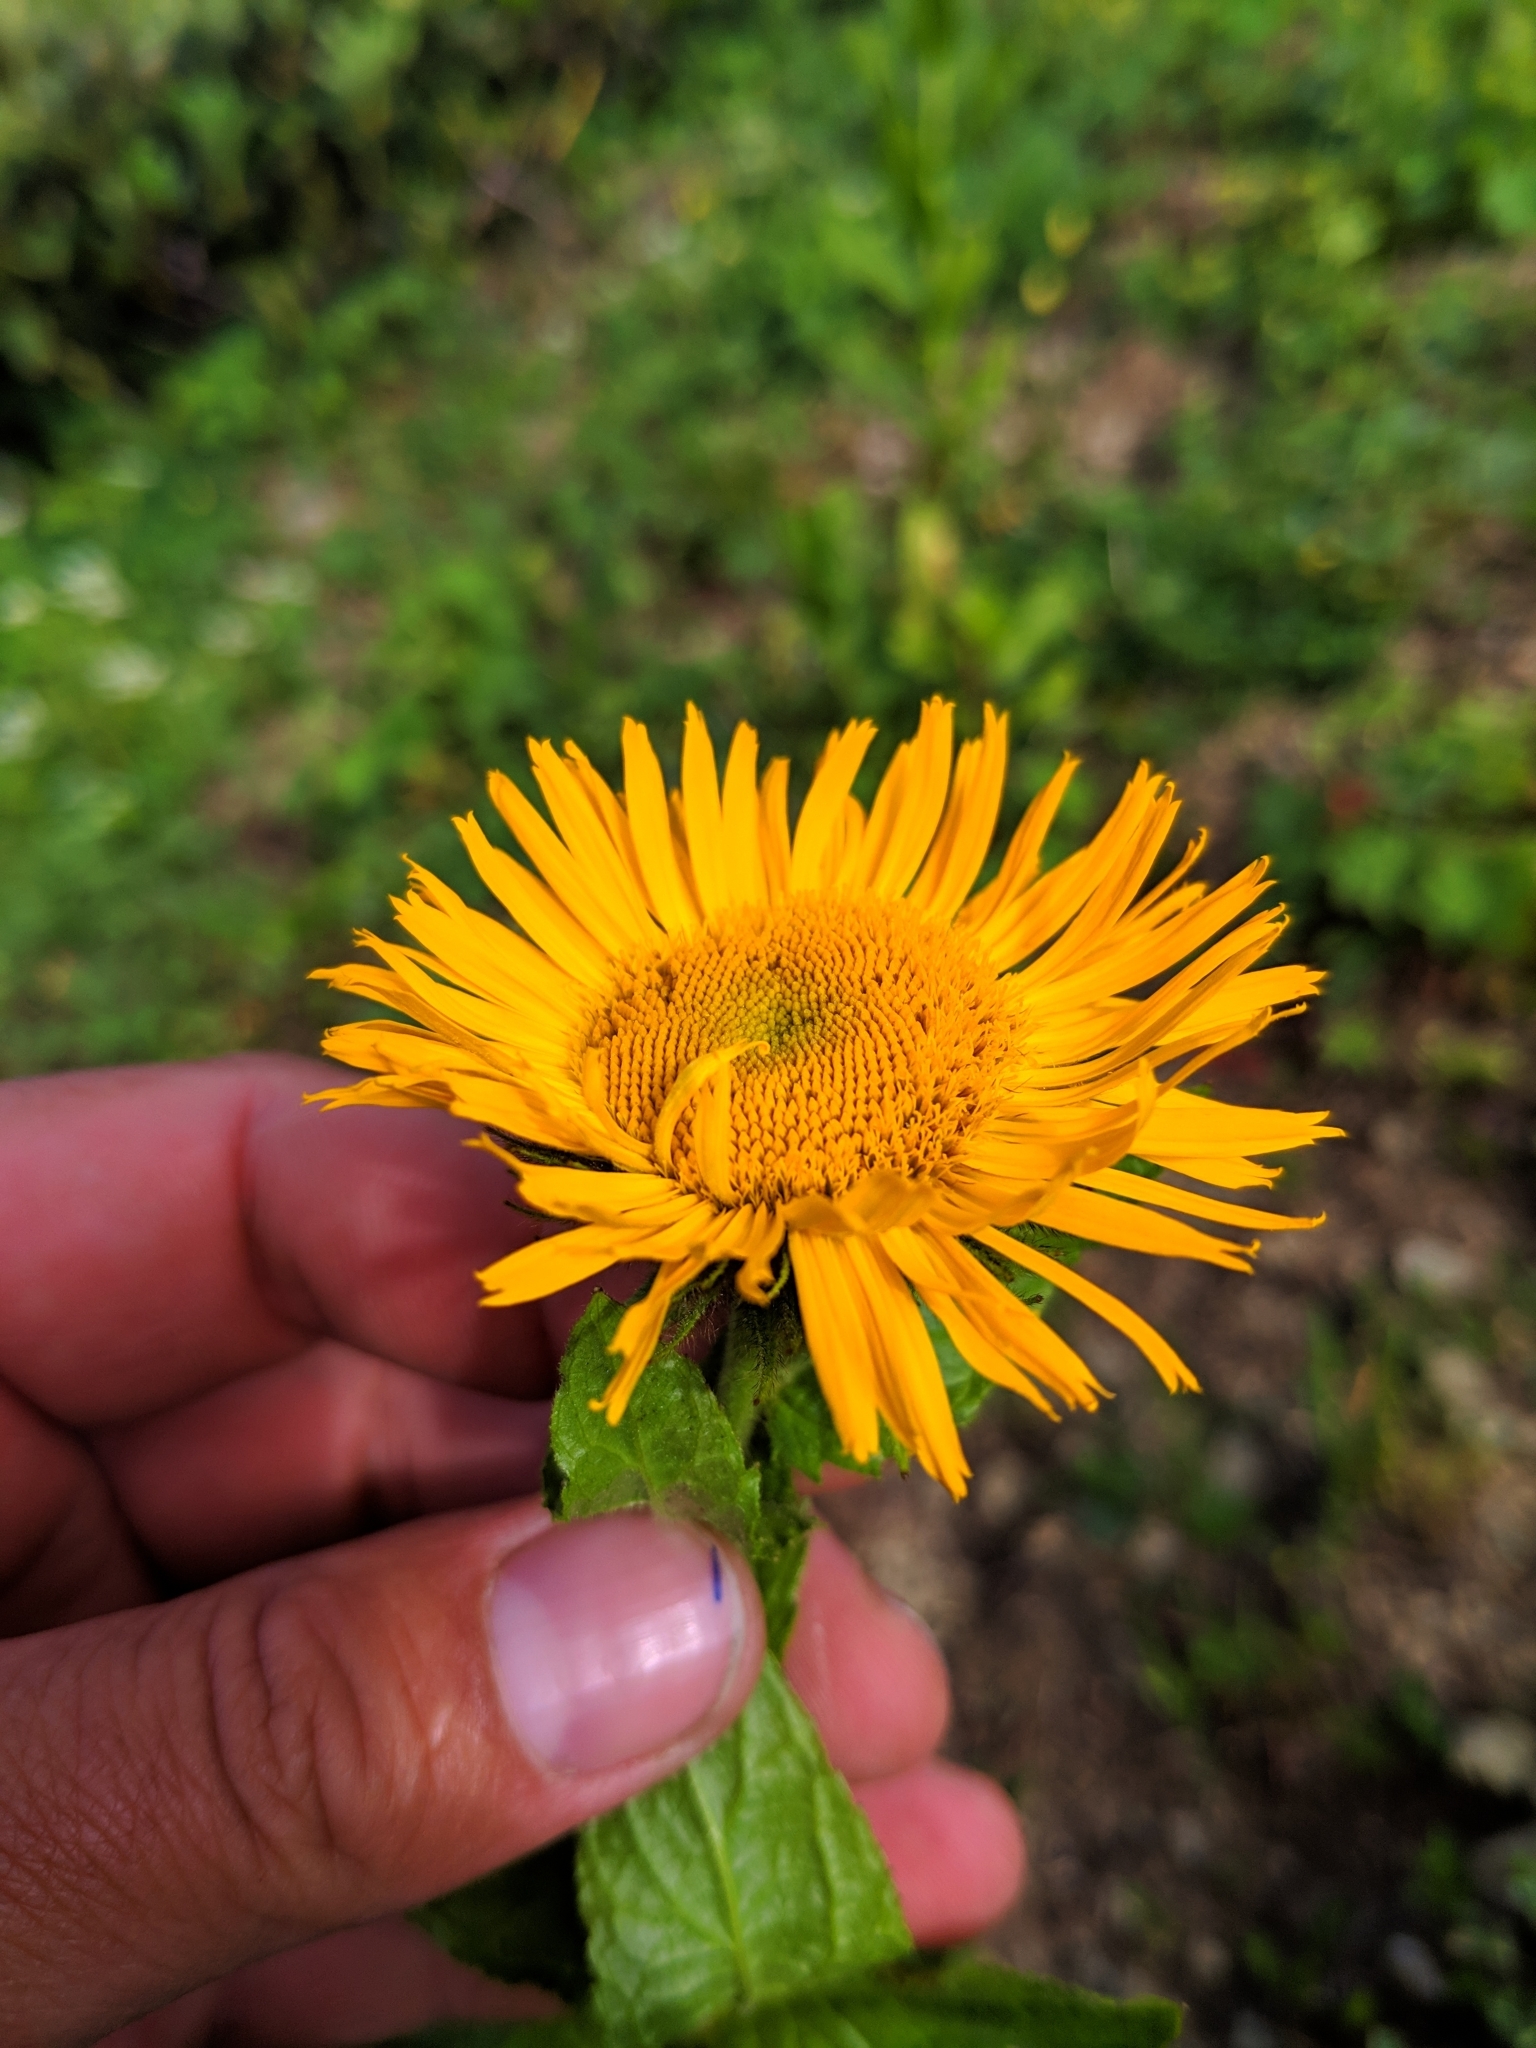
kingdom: Plantae
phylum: Tracheophyta
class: Magnoliopsida
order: Asterales
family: Asteraceae
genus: Pentanema
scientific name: Pentanema orientale
